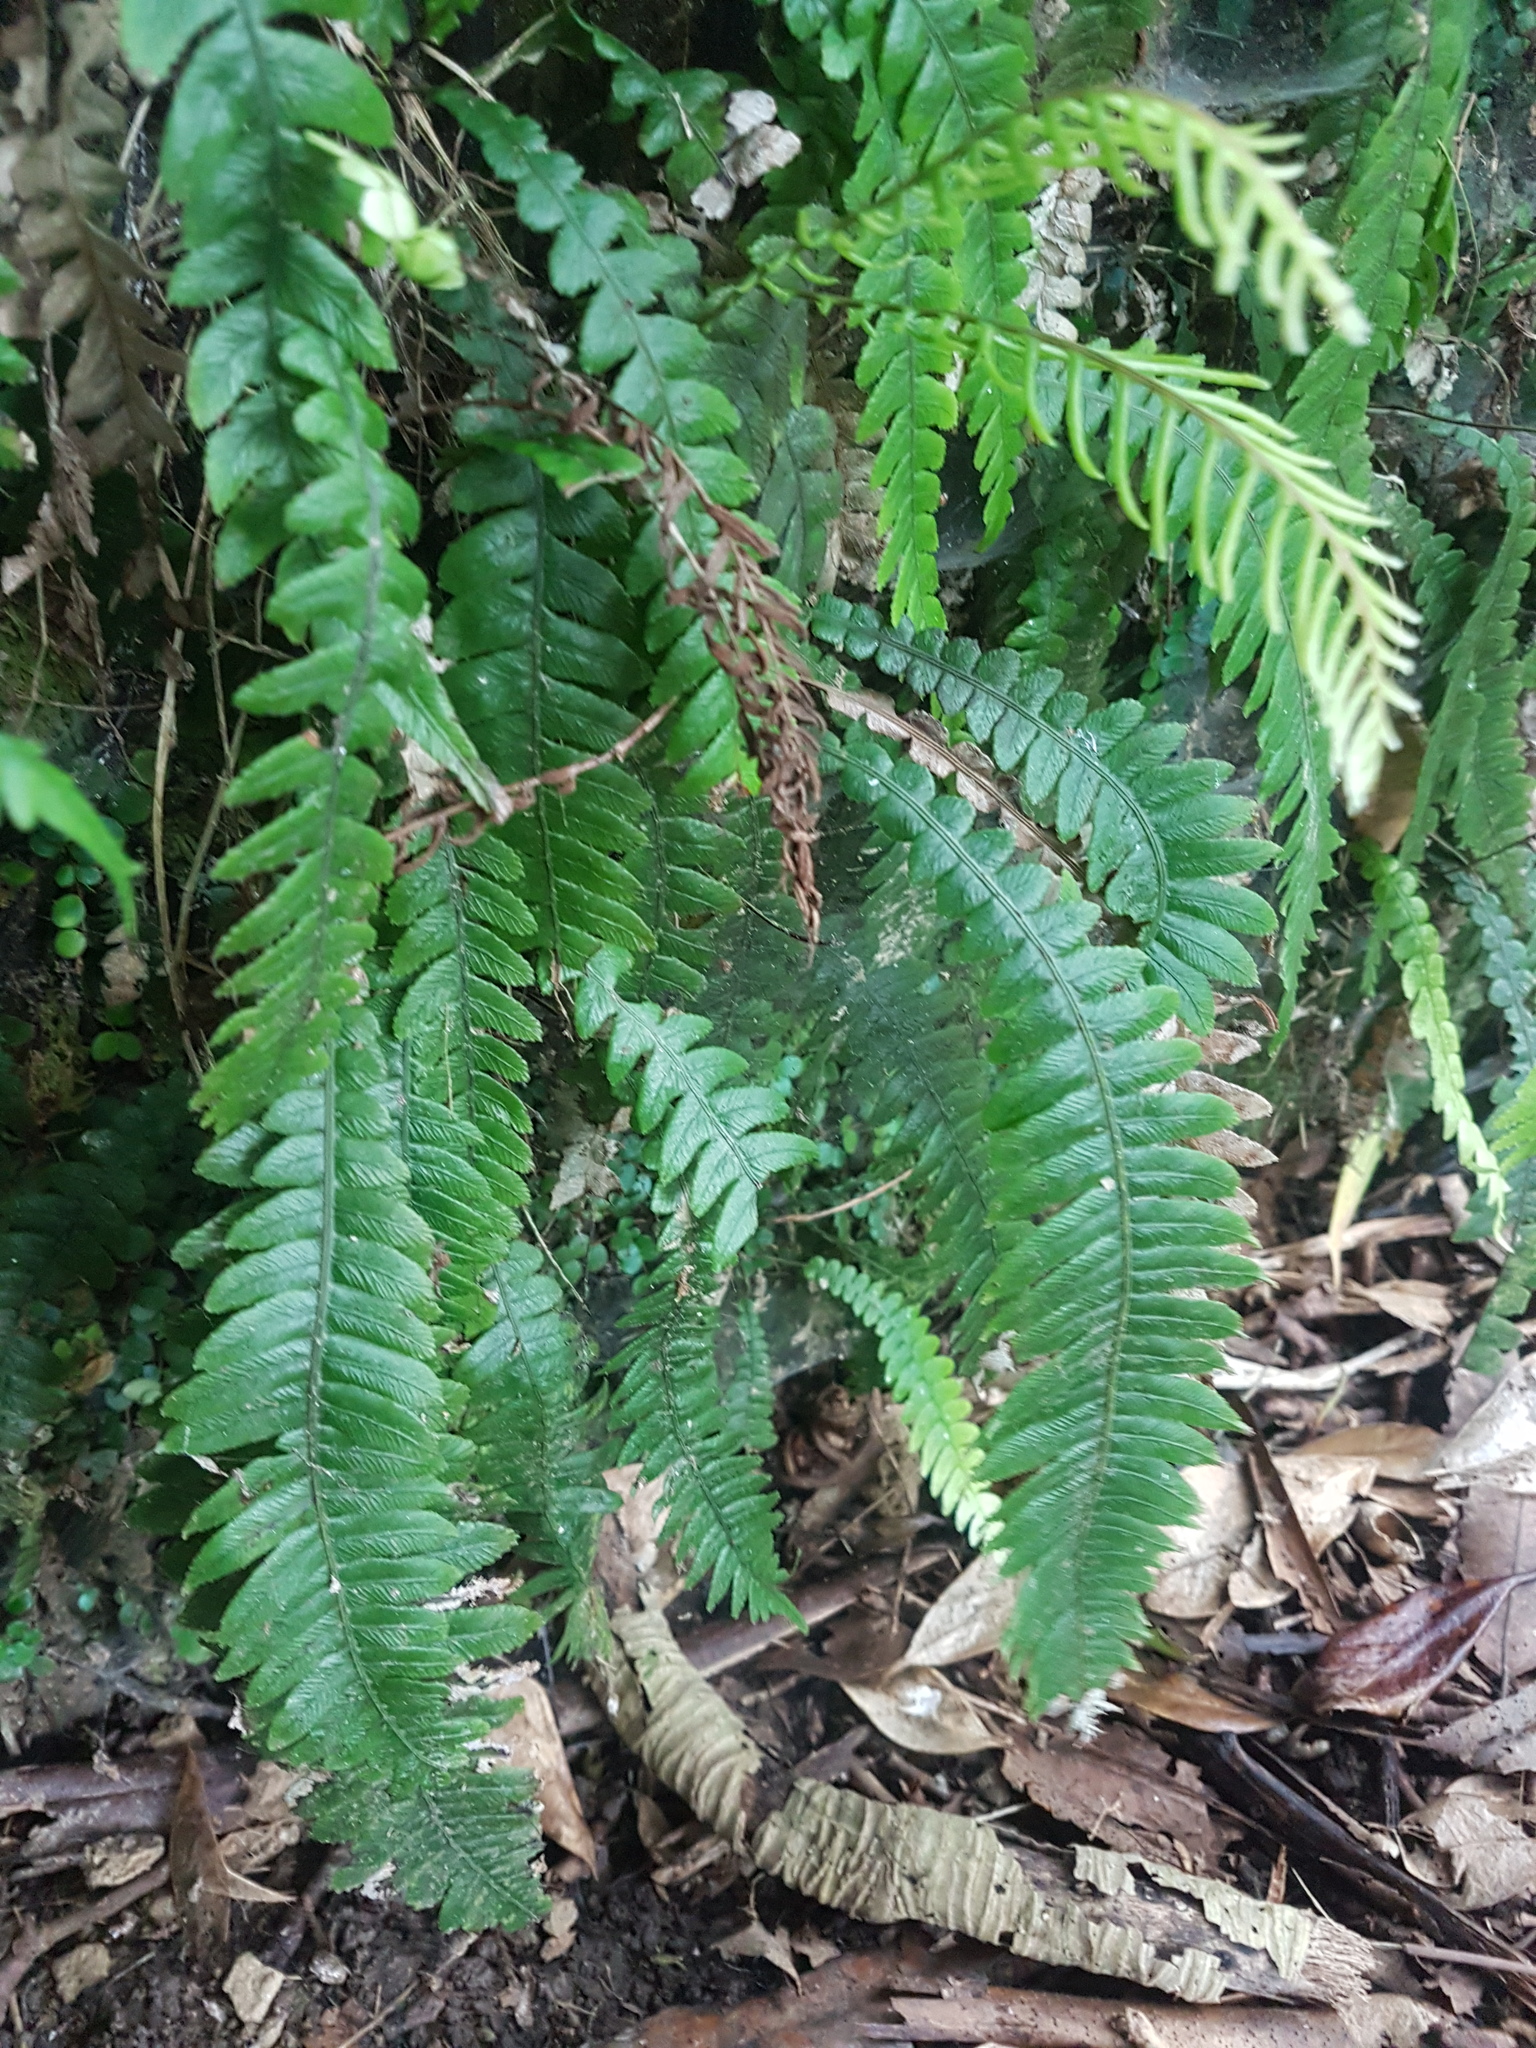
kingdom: Plantae
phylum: Tracheophyta
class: Polypodiopsida
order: Polypodiales
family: Blechnaceae
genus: Austroblechnum
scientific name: Austroblechnum lanceolatum
